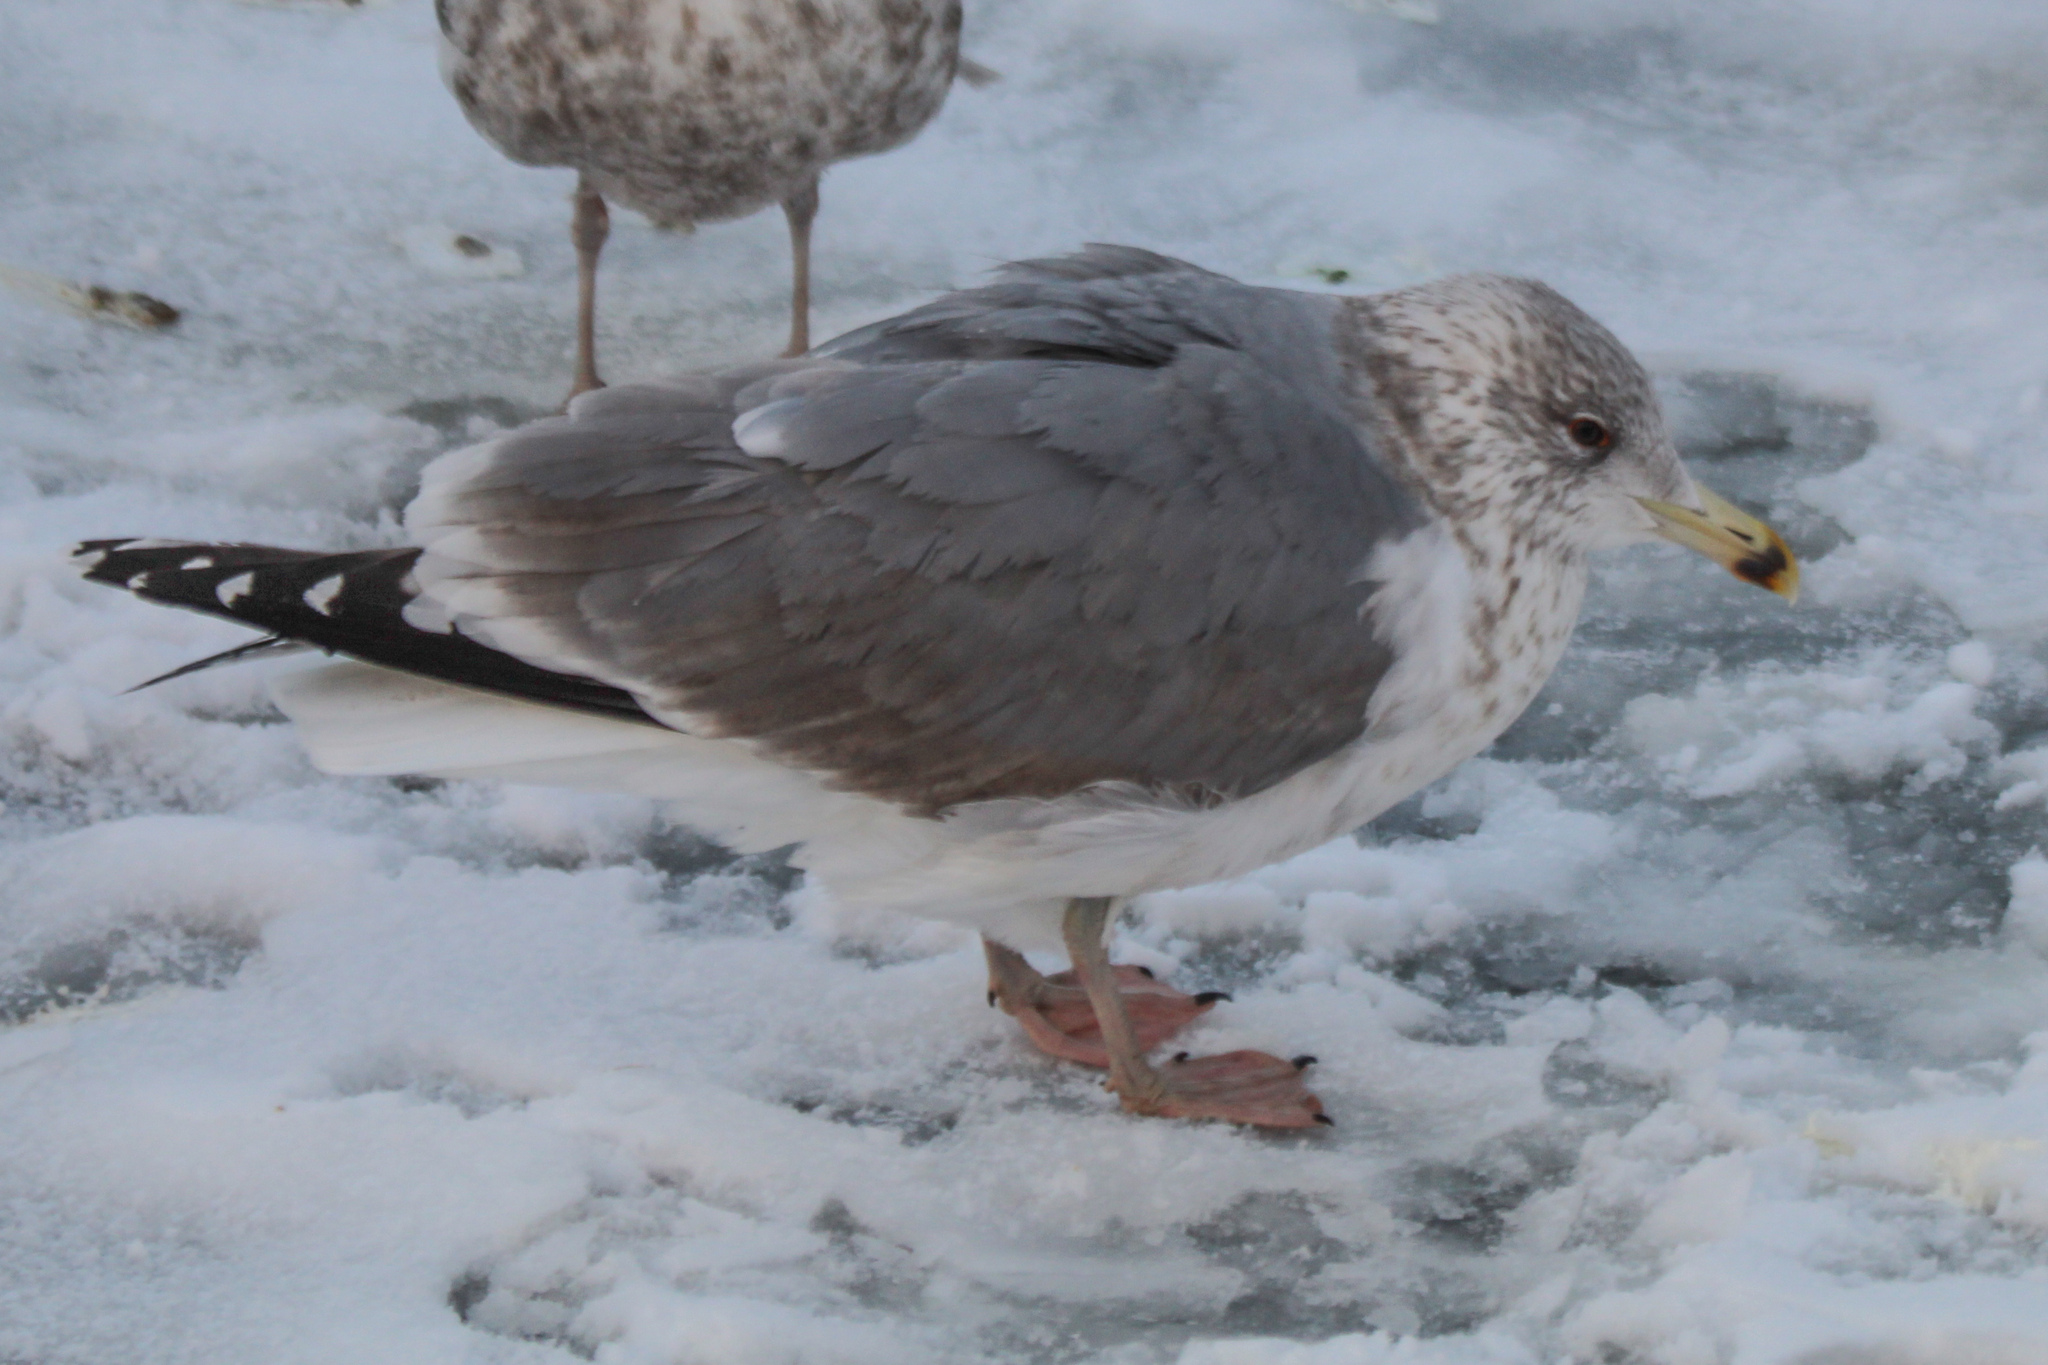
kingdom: Animalia
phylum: Chordata
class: Aves
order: Charadriiformes
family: Laridae
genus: Larus
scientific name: Larus argentatus
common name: Herring gull
